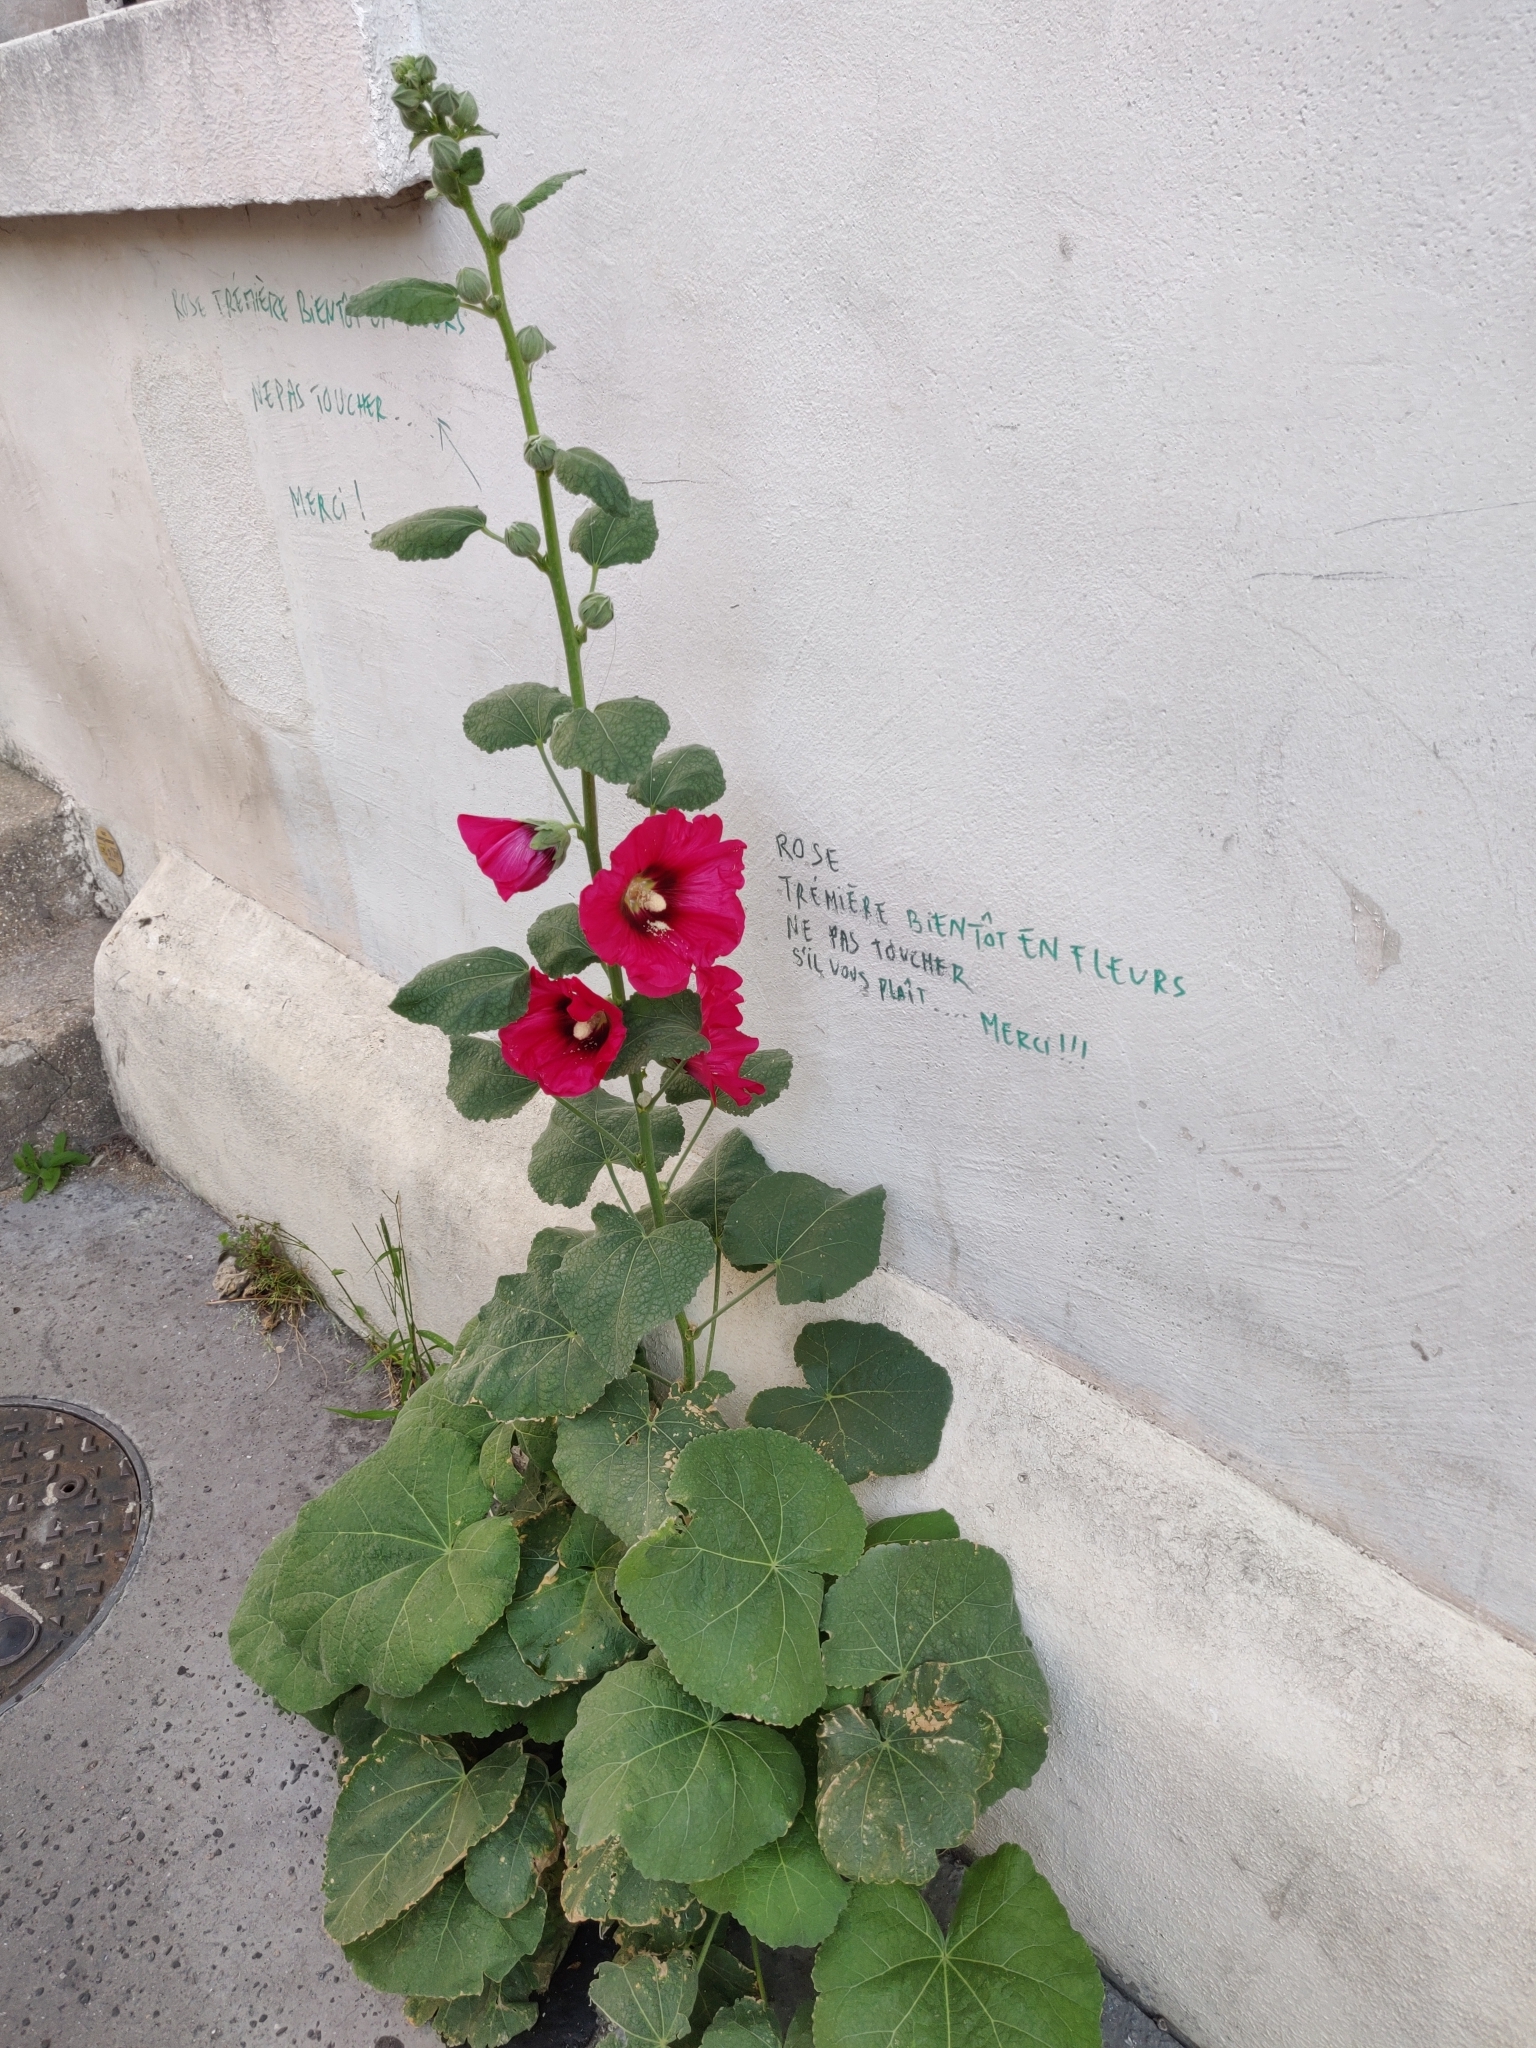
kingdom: Plantae
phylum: Tracheophyta
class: Magnoliopsida
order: Malvales
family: Malvaceae
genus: Alcea
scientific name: Alcea rosea
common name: Hollyhock
